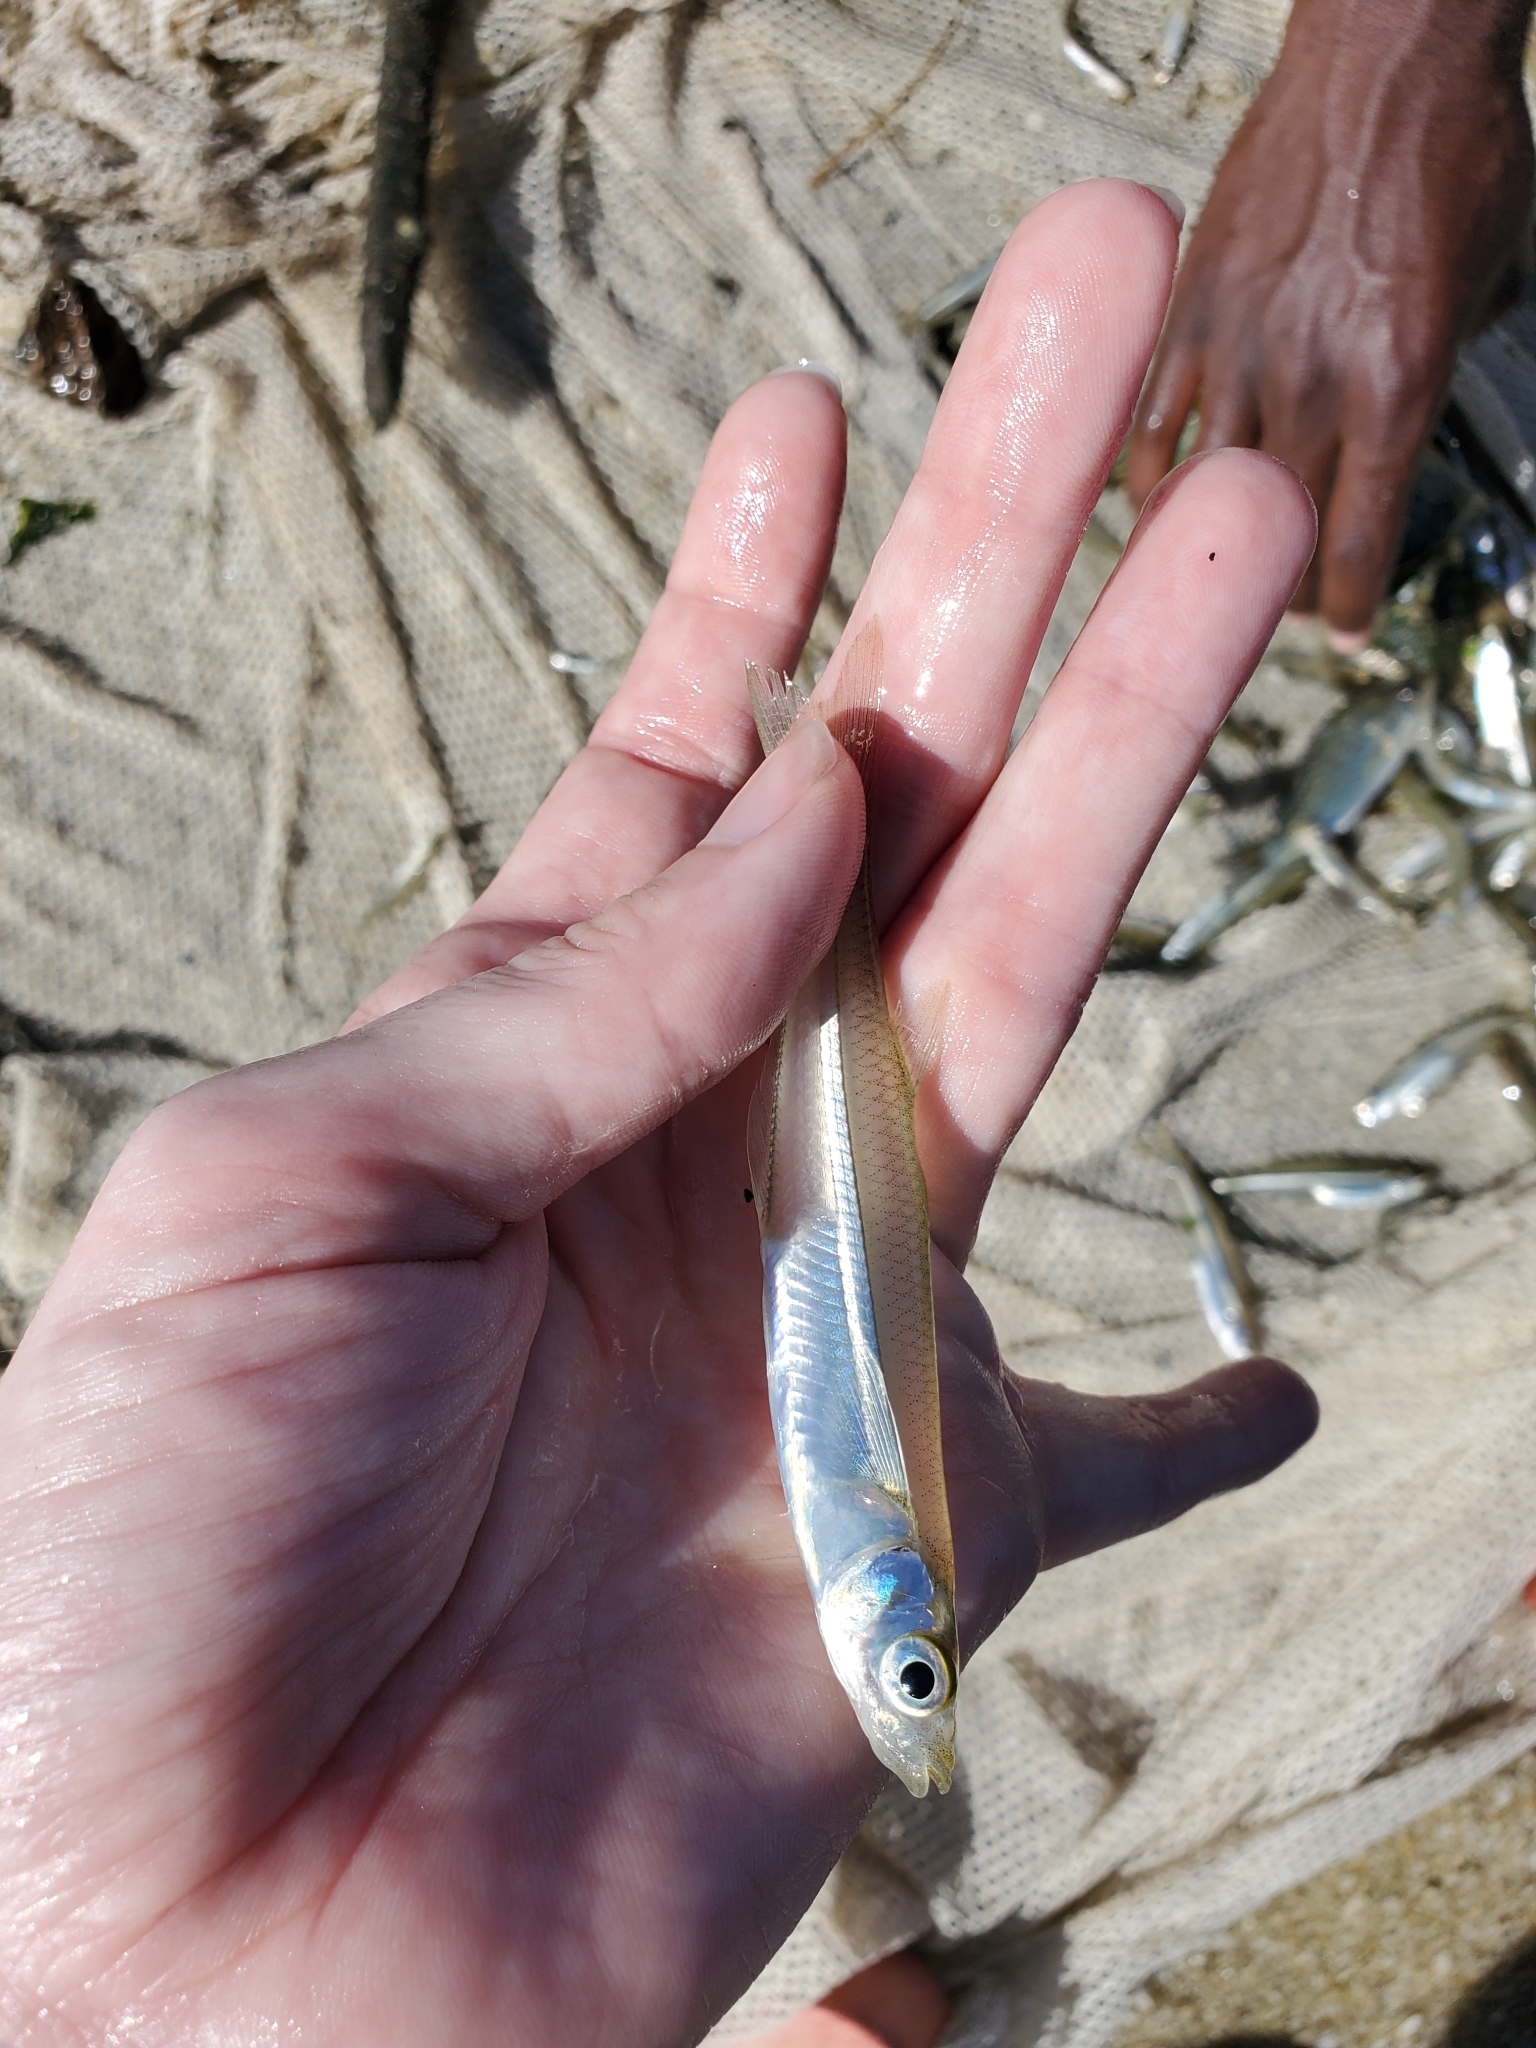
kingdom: Animalia
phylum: Chordata
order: Atheriniformes
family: Atherinopsidae
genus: Menidia
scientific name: Menidia menidia
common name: Atlantic silverside
